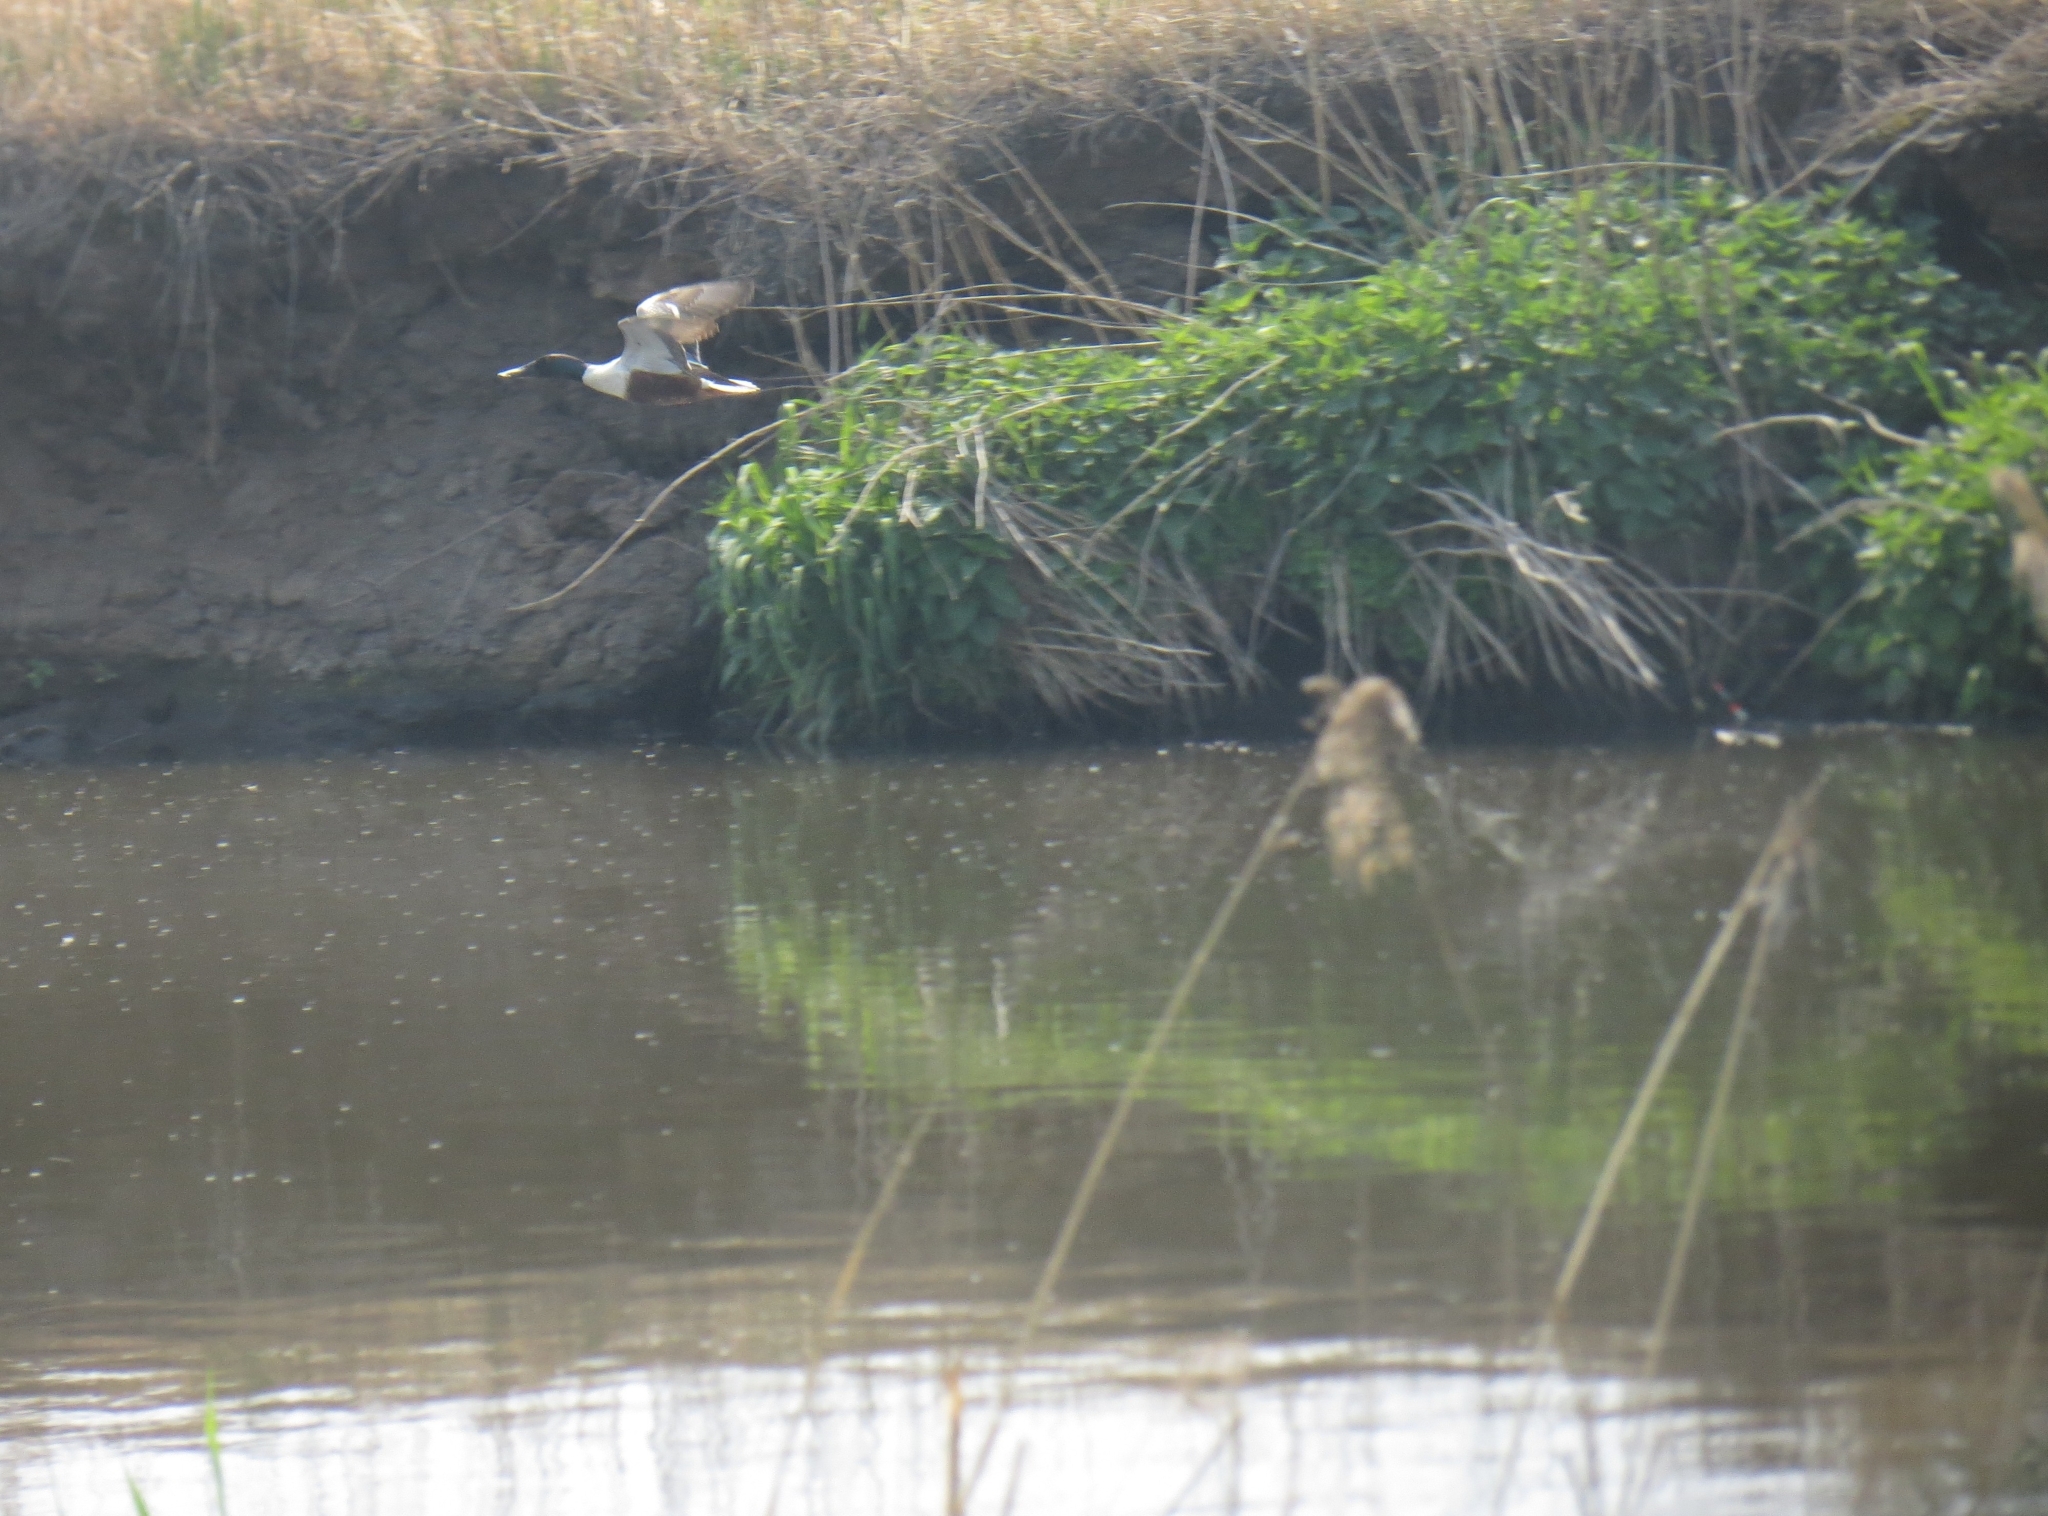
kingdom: Animalia
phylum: Chordata
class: Aves
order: Anseriformes
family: Anatidae
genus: Spatula
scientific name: Spatula clypeata
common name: Northern shoveler
